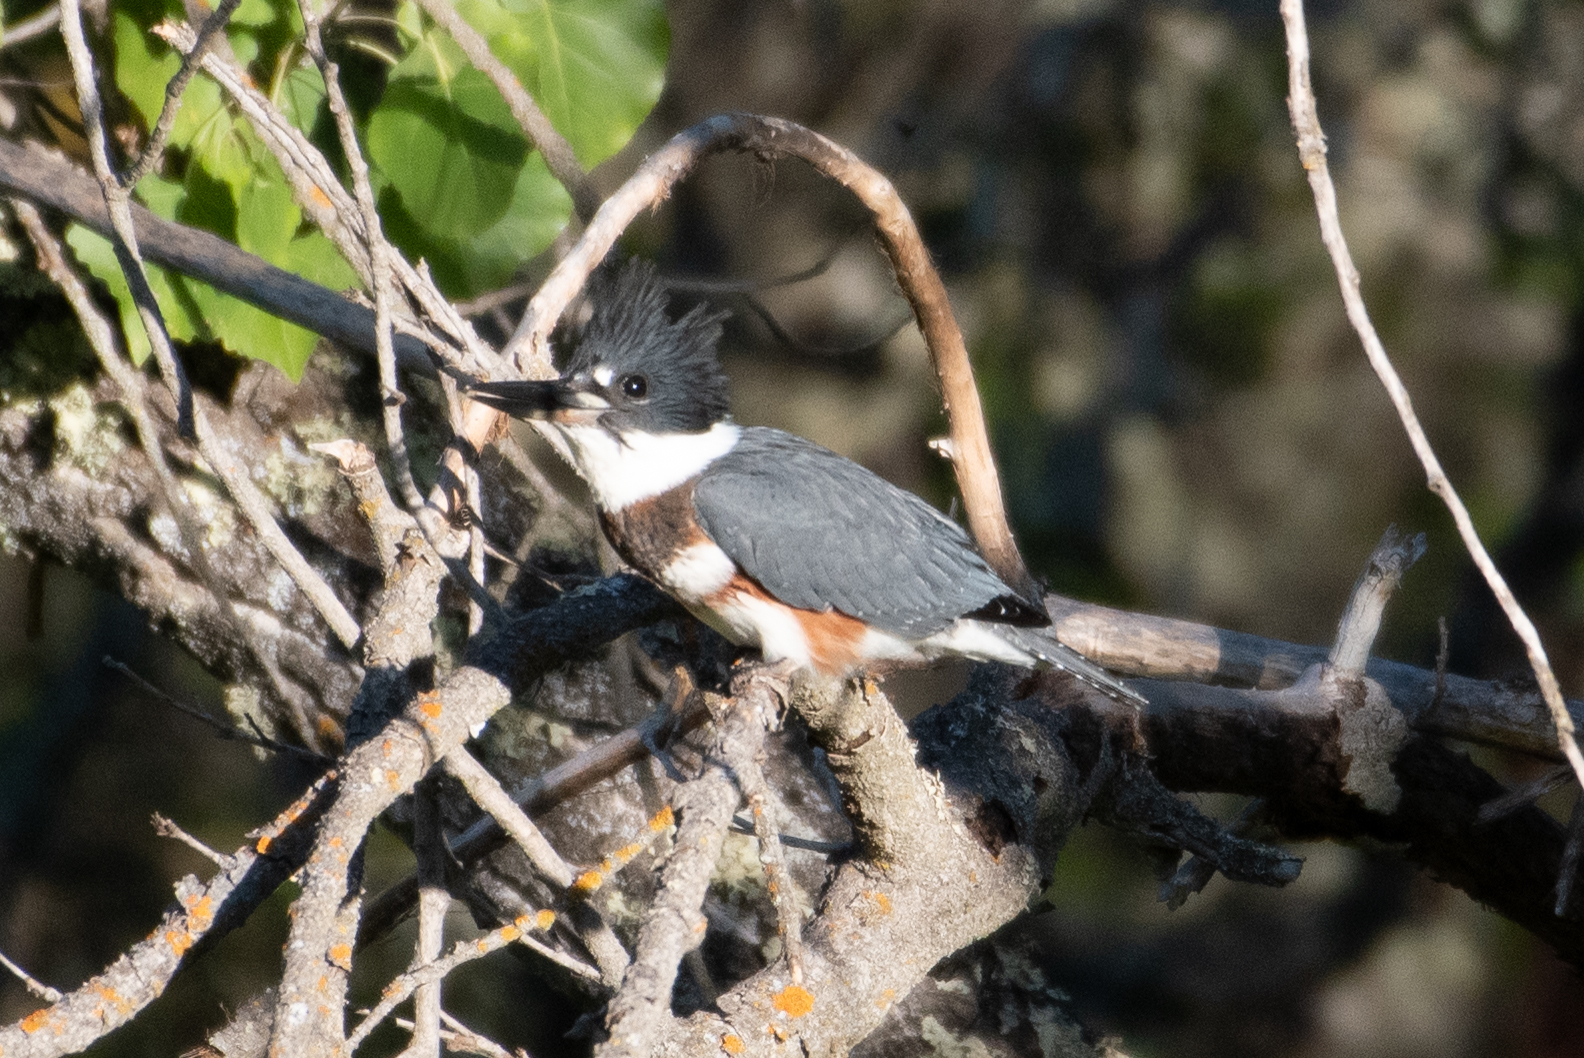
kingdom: Animalia
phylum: Chordata
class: Aves
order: Coraciiformes
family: Alcedinidae
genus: Megaceryle
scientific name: Megaceryle alcyon
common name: Belted kingfisher
